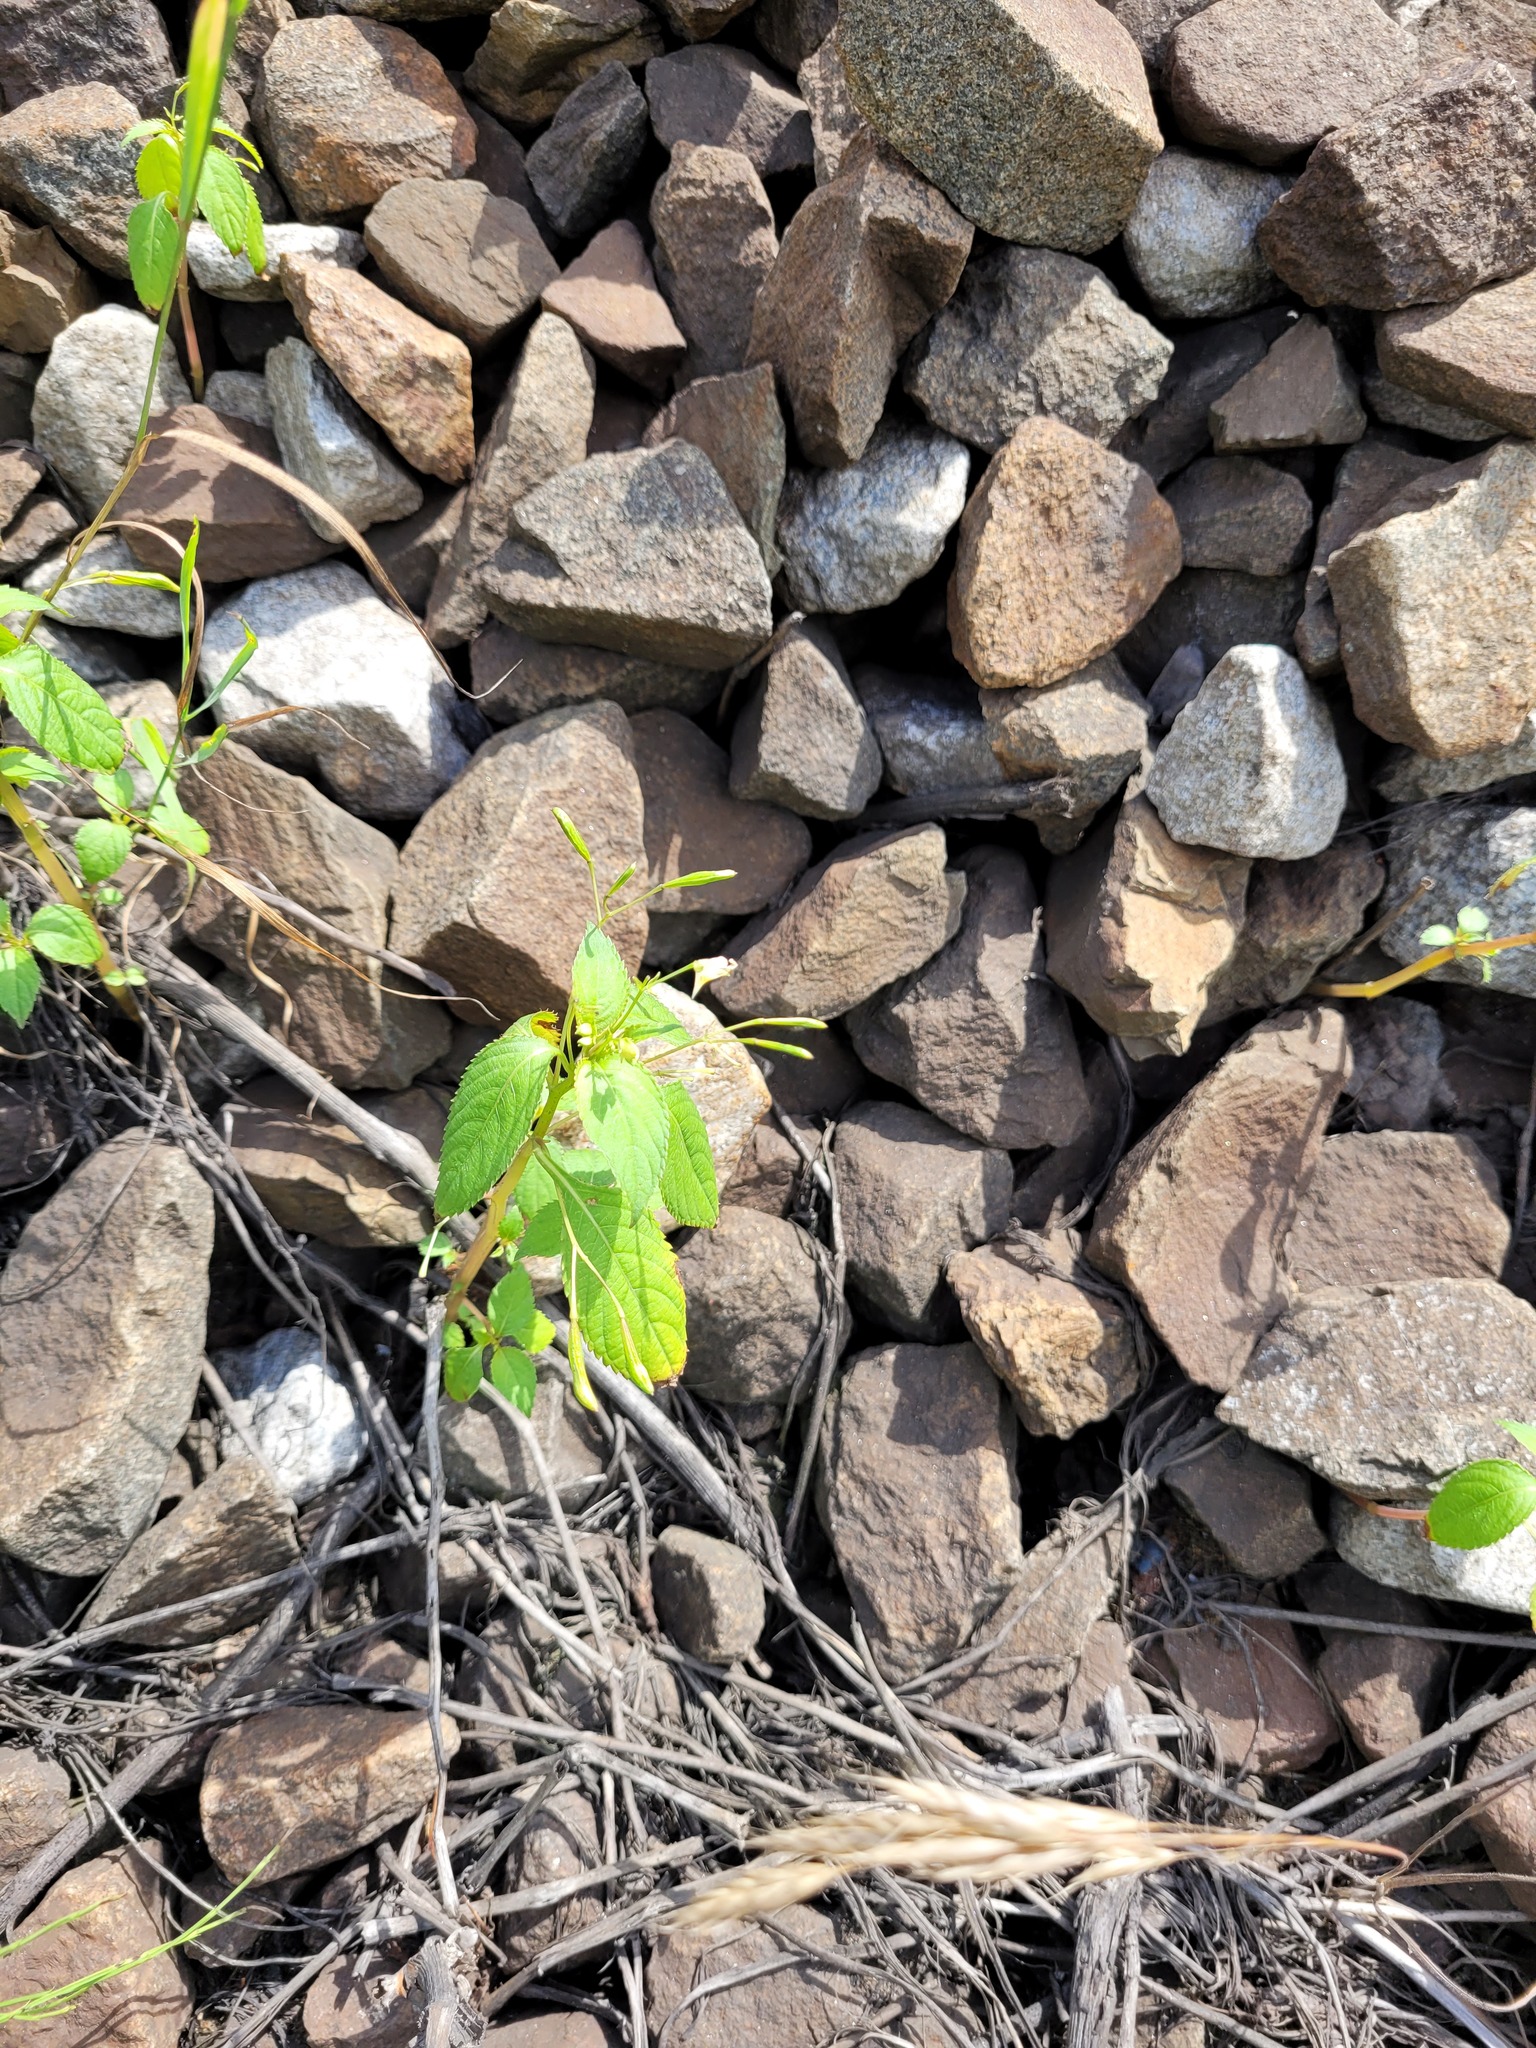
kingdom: Plantae
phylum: Tracheophyta
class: Magnoliopsida
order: Ericales
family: Balsaminaceae
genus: Impatiens
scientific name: Impatiens parviflora
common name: Small balsam
